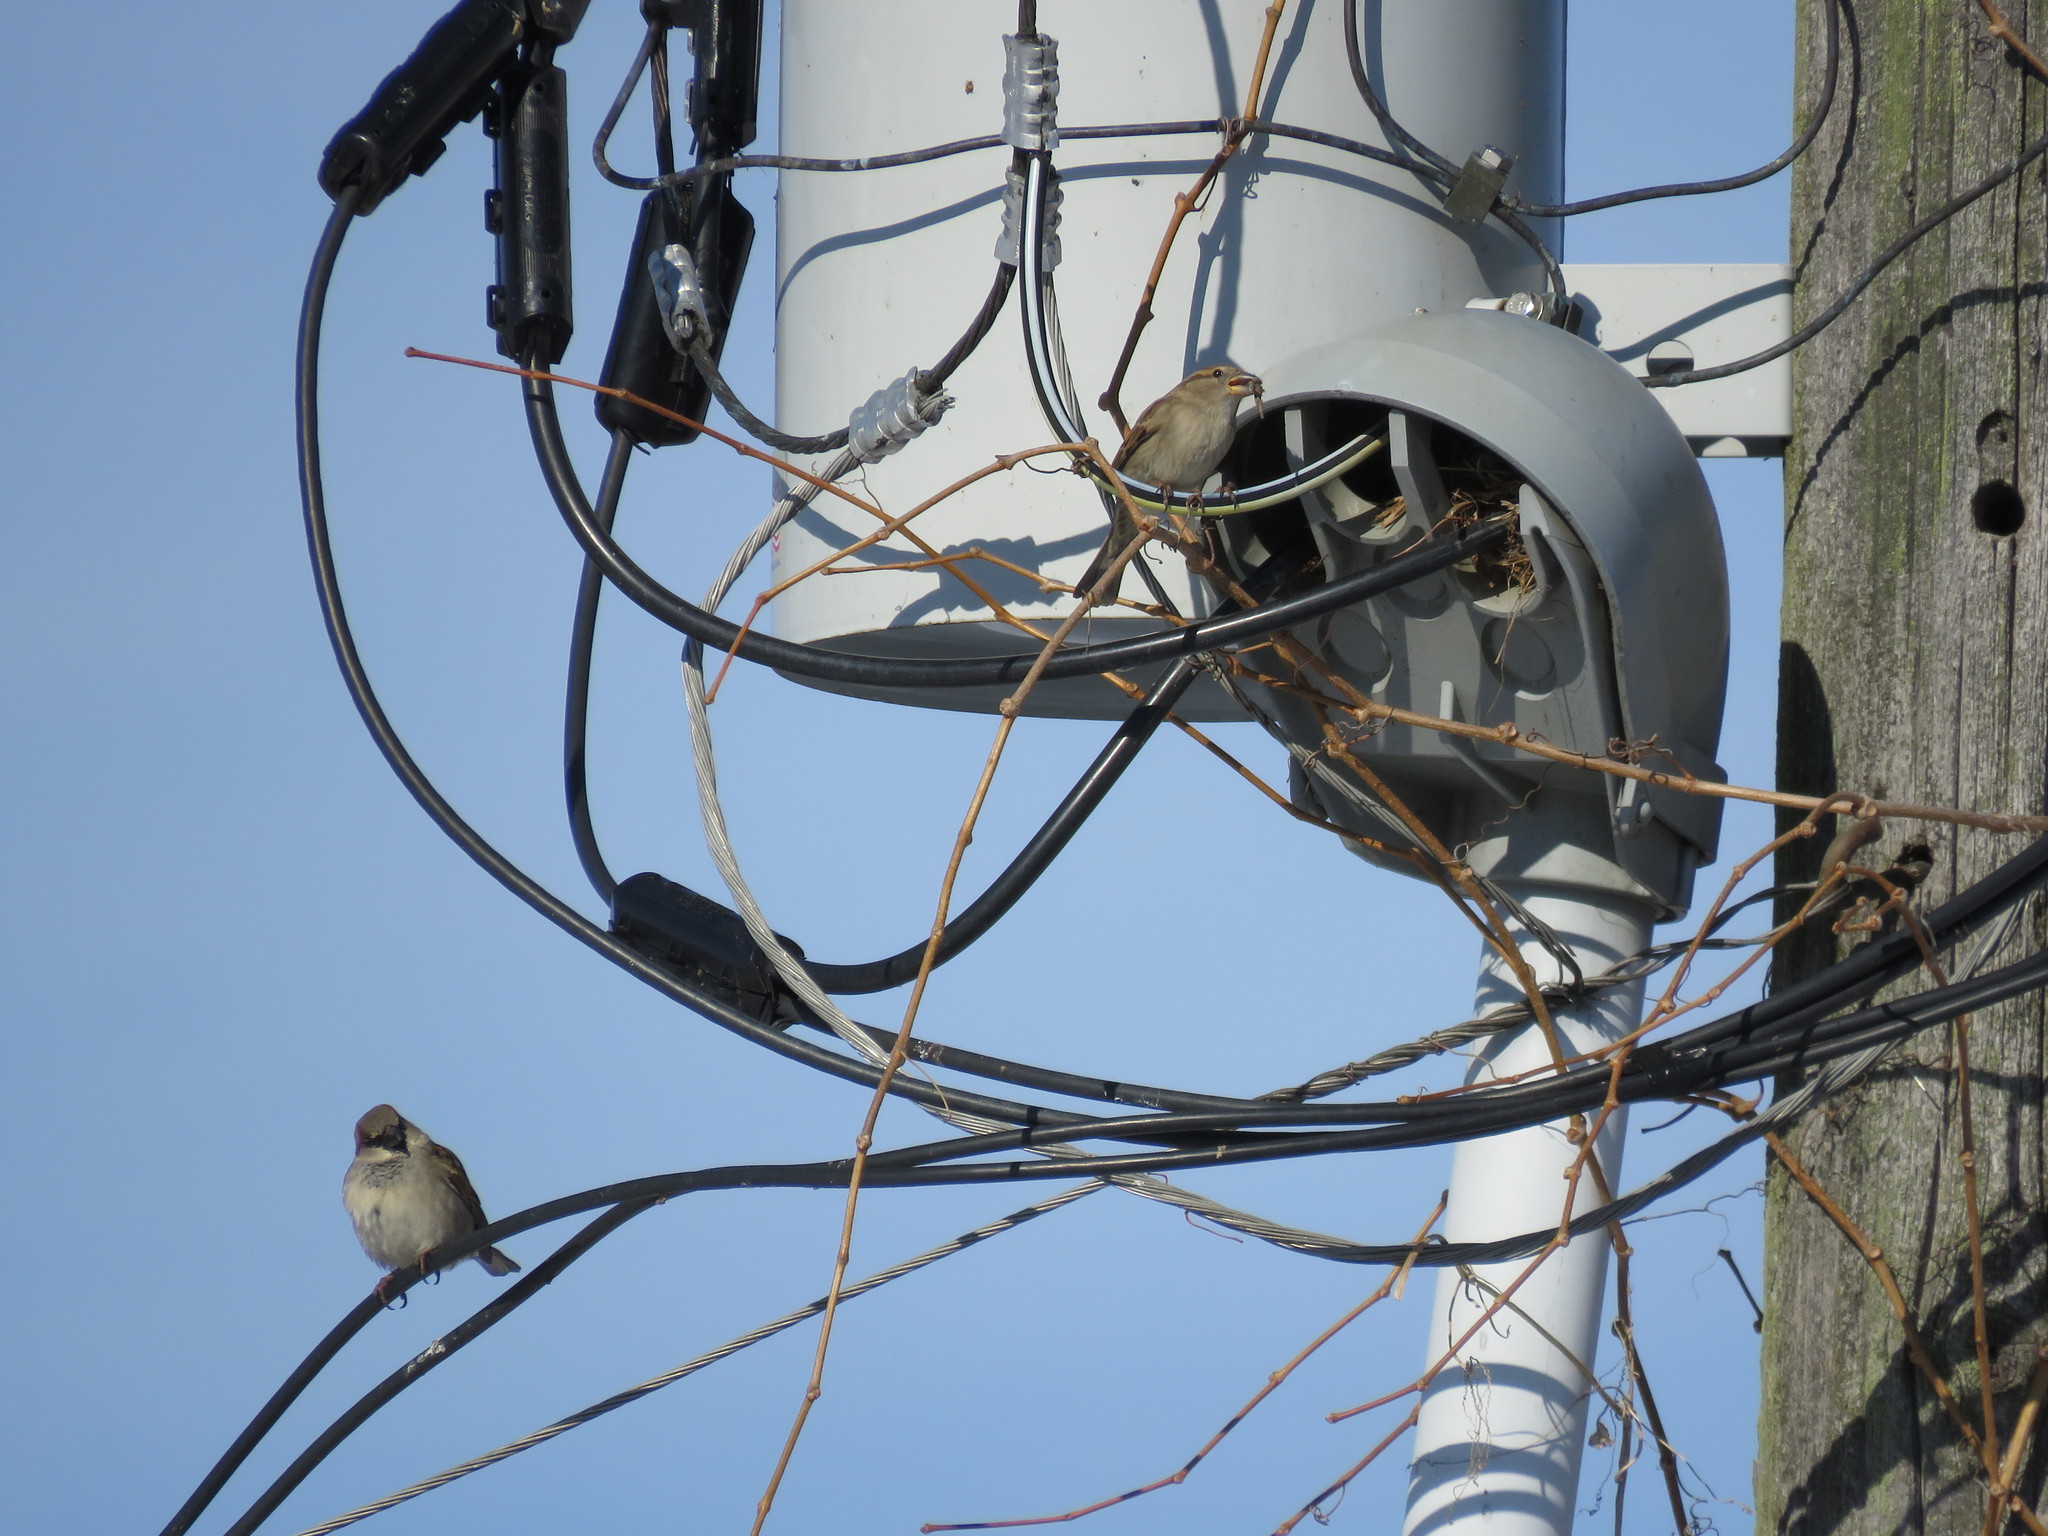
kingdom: Animalia
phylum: Chordata
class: Aves
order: Passeriformes
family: Passeridae
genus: Passer
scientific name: Passer domesticus
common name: House sparrow
